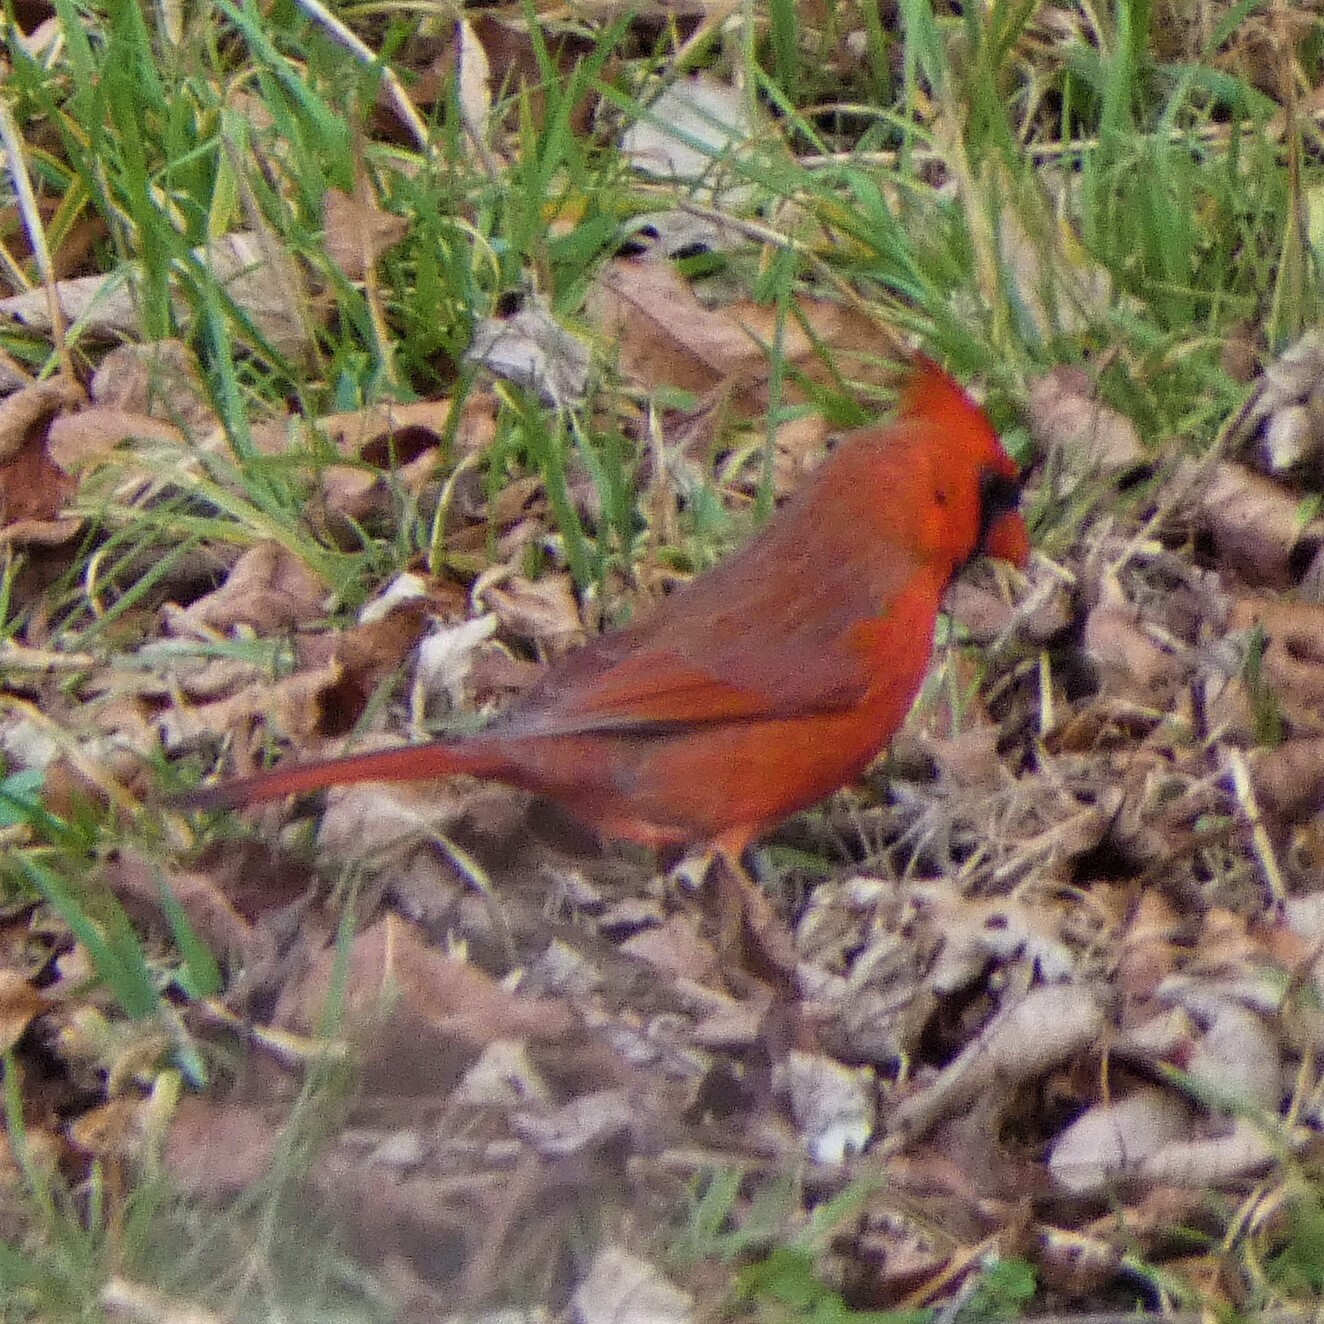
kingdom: Animalia
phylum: Chordata
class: Aves
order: Passeriformes
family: Cardinalidae
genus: Cardinalis
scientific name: Cardinalis cardinalis
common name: Northern cardinal
